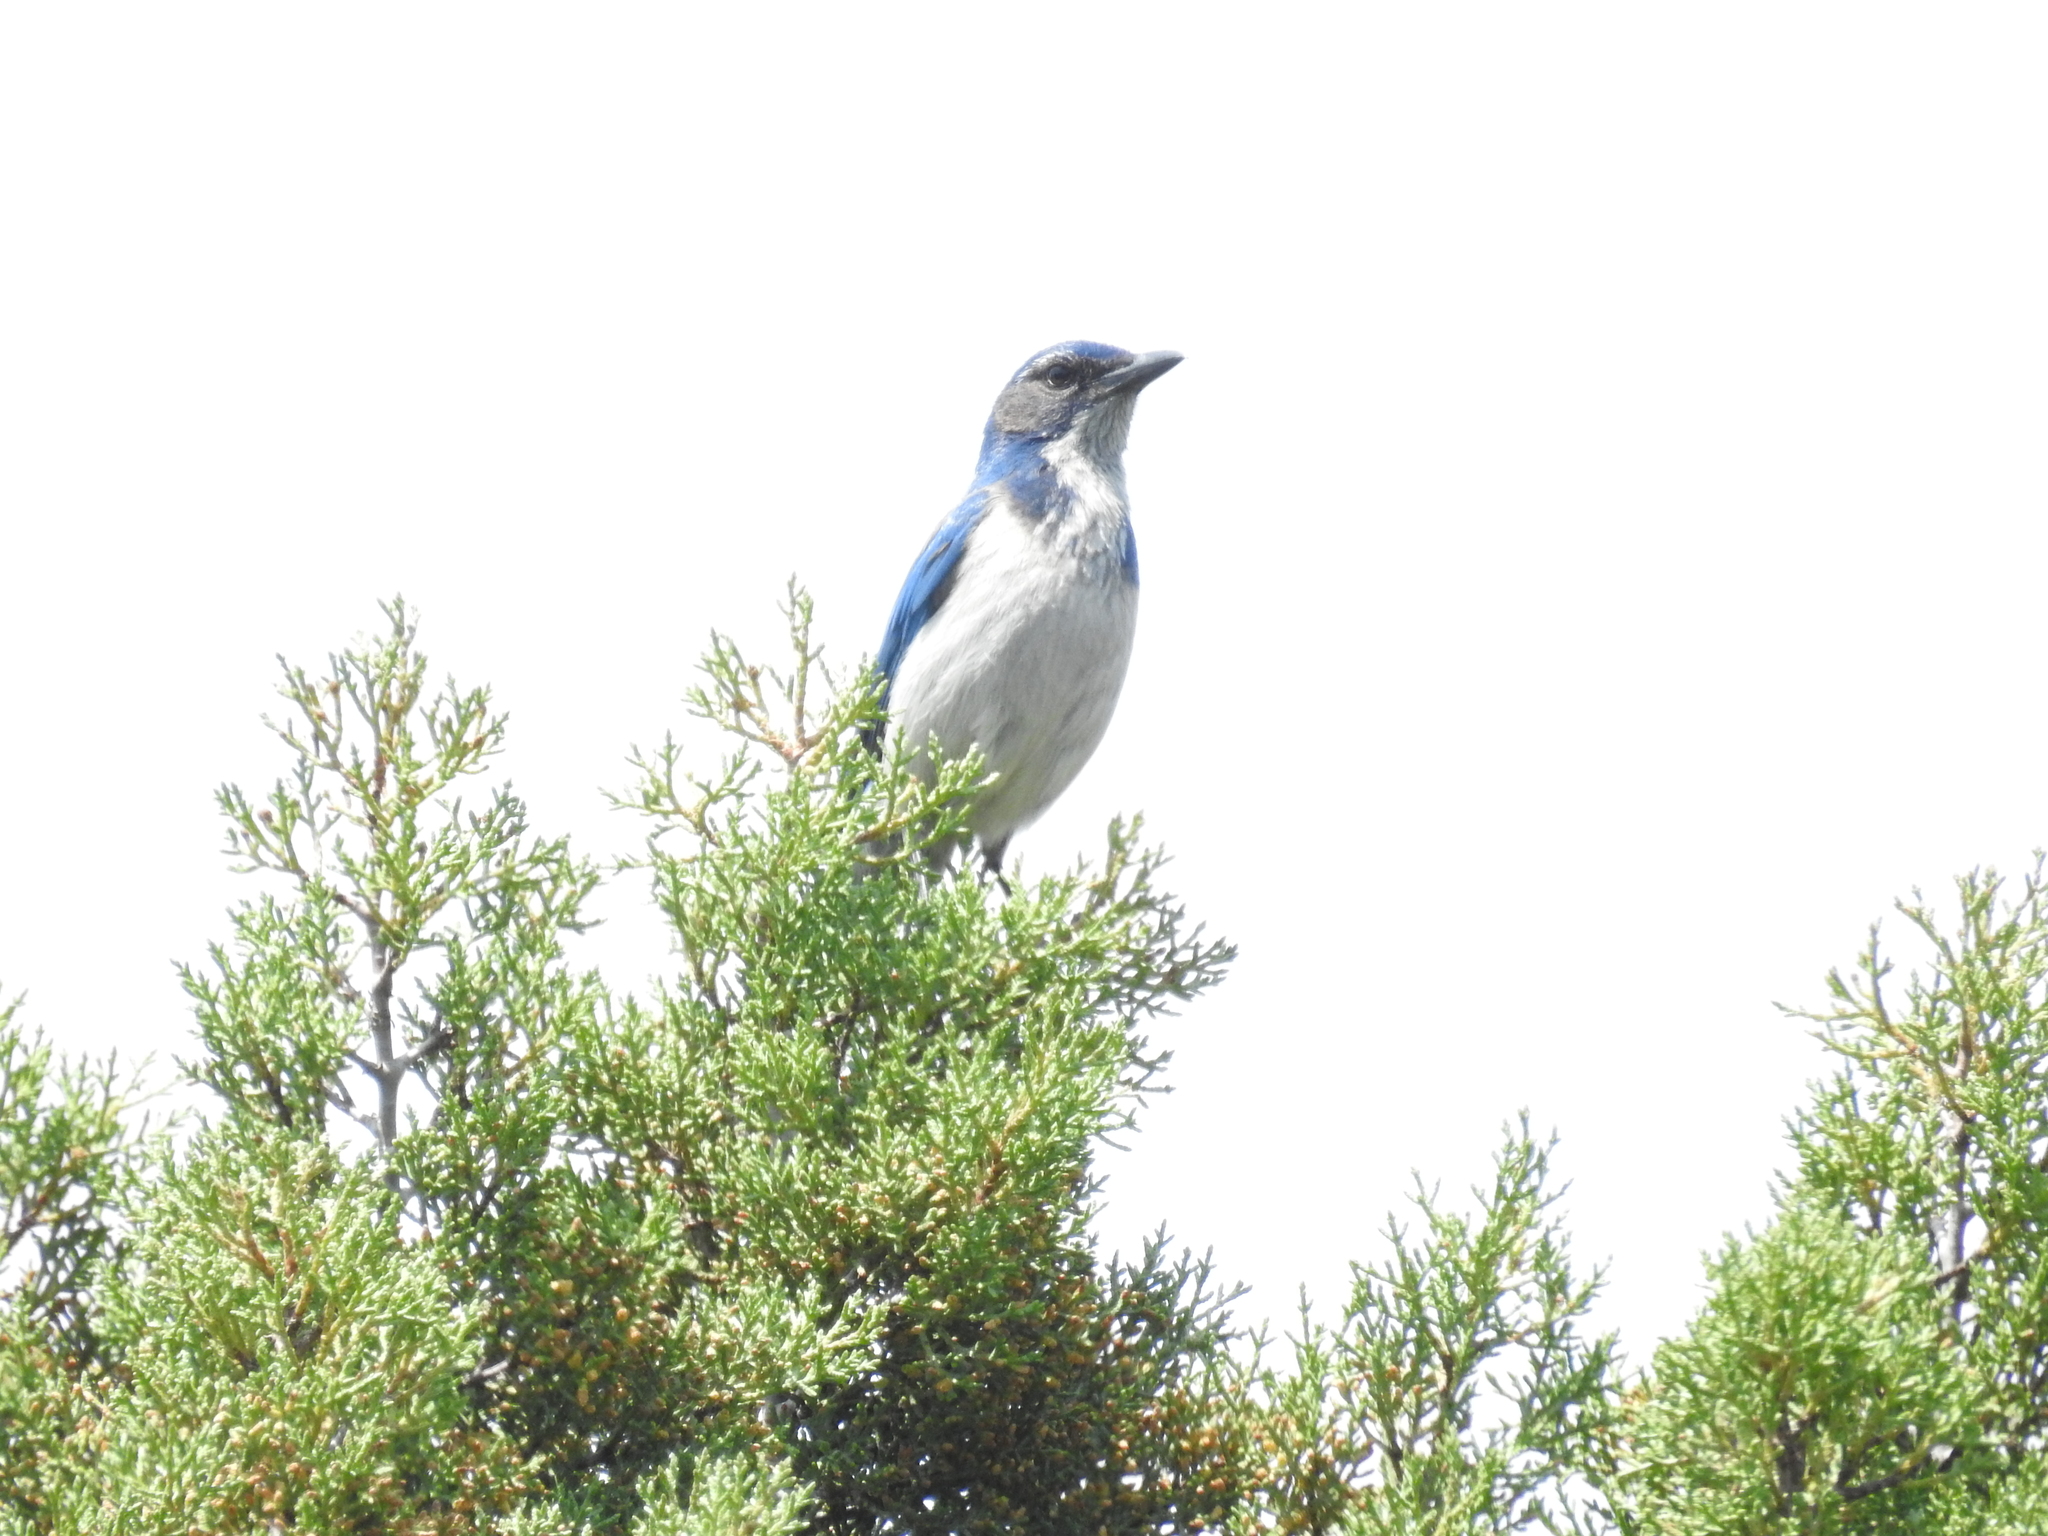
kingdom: Animalia
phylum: Chordata
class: Aves
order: Passeriformes
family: Corvidae
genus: Aphelocoma
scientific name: Aphelocoma californica
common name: California scrub-jay
